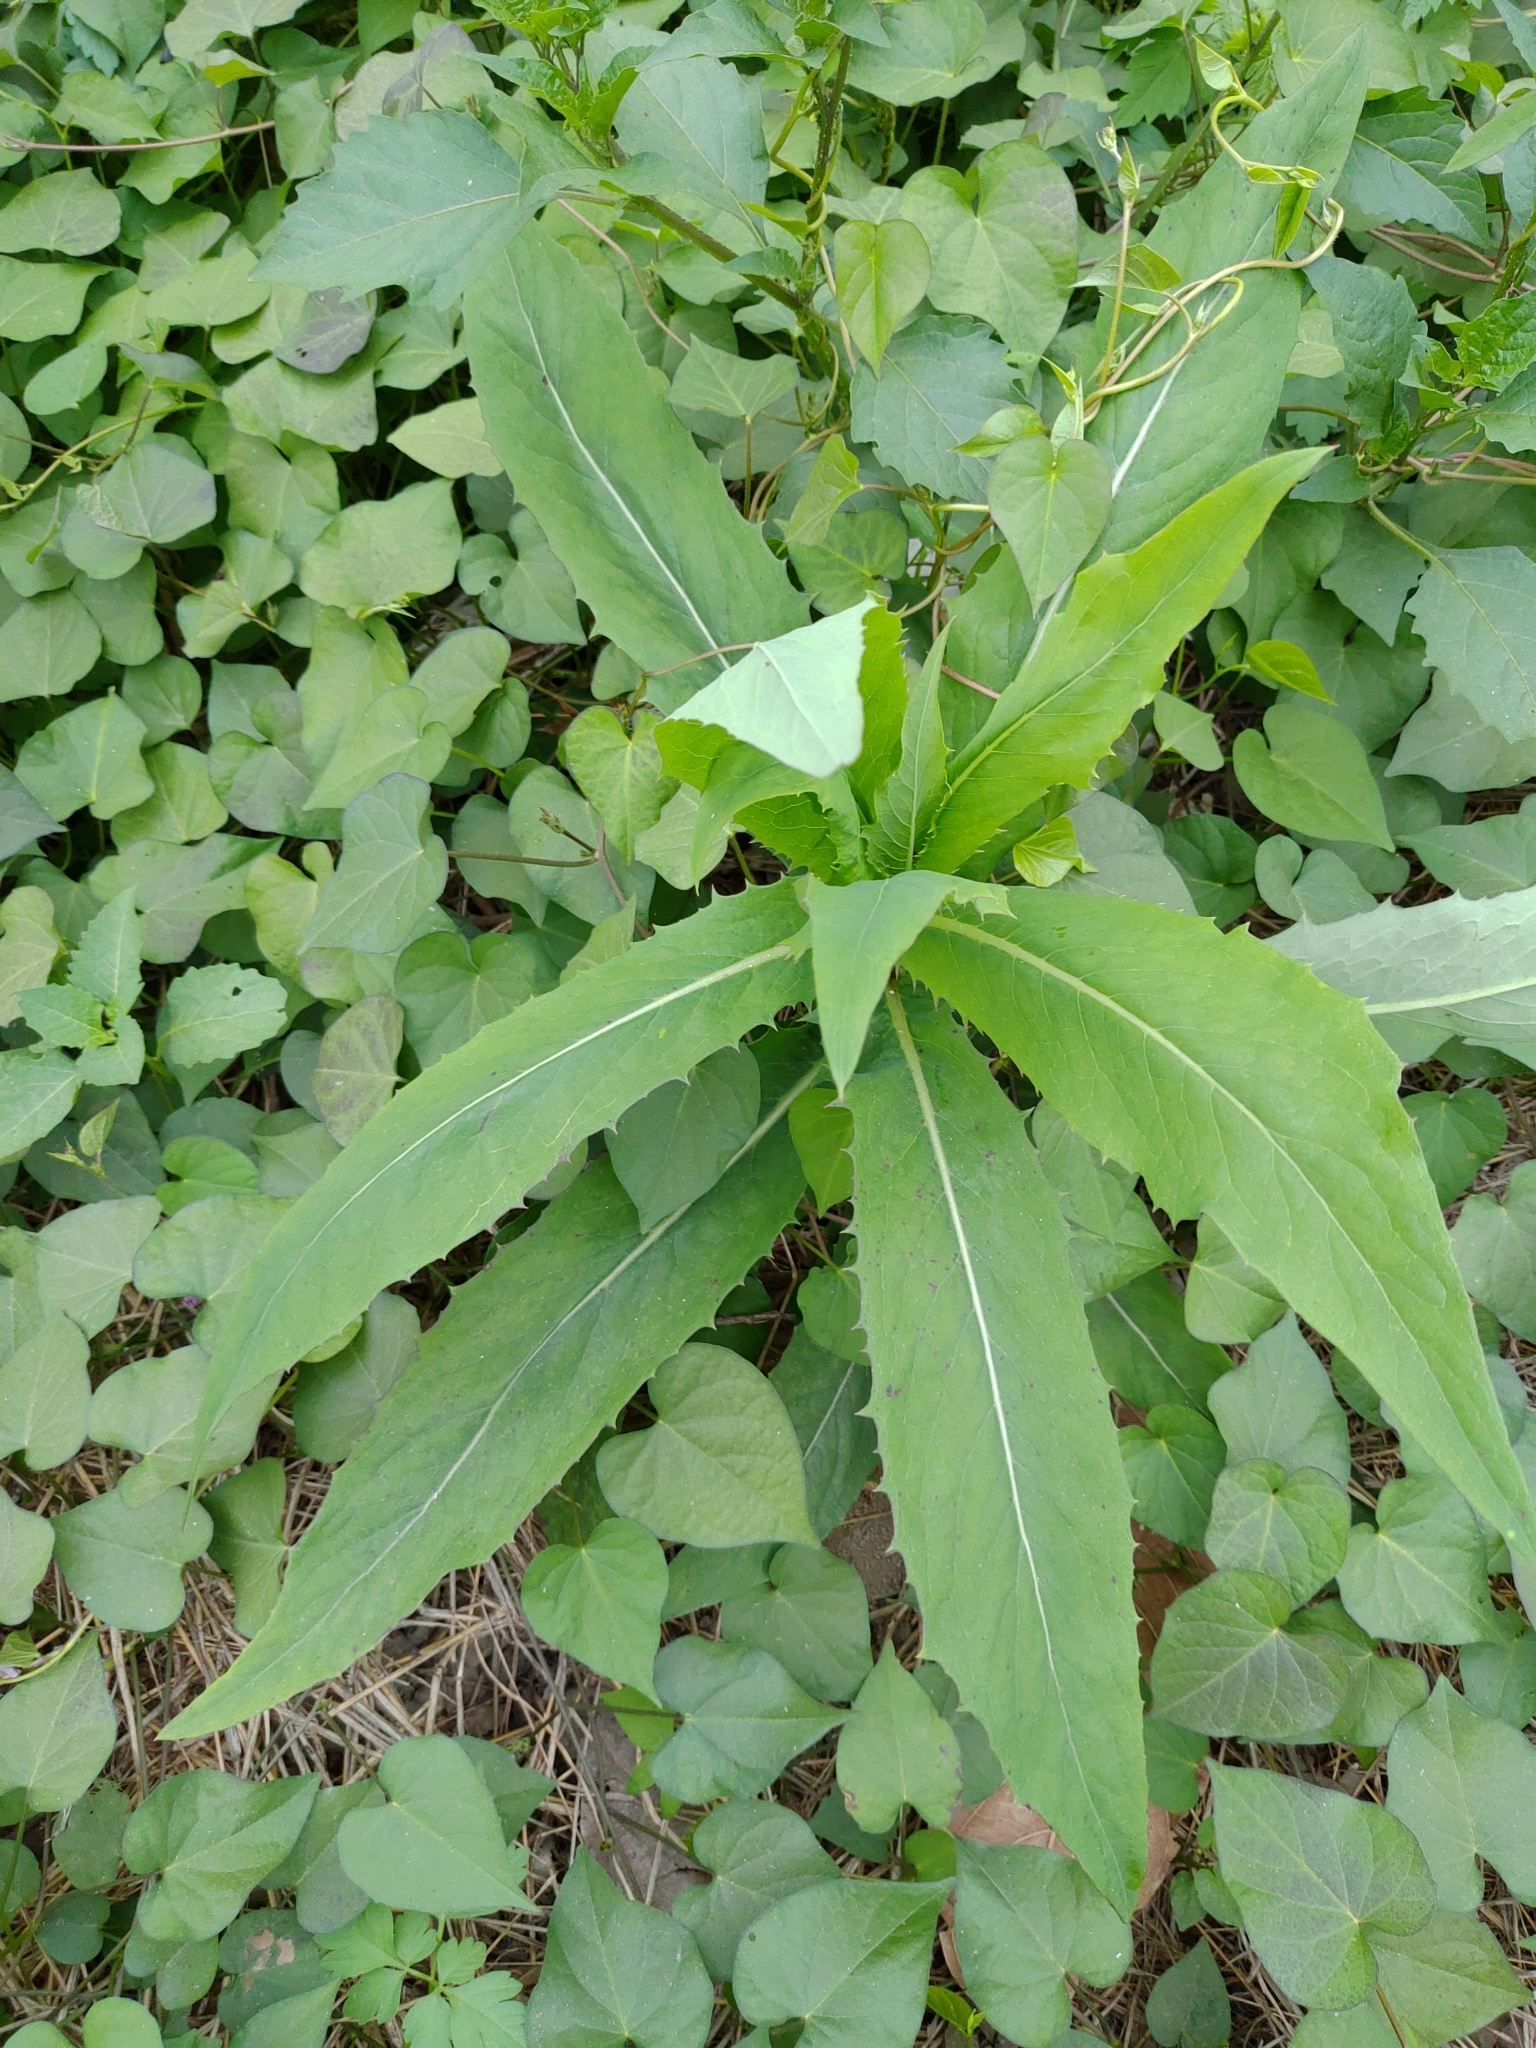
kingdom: Plantae
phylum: Tracheophyta
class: Magnoliopsida
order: Asterales
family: Asteraceae
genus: Lactuca
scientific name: Lactuca indica
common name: Wild lettuce
